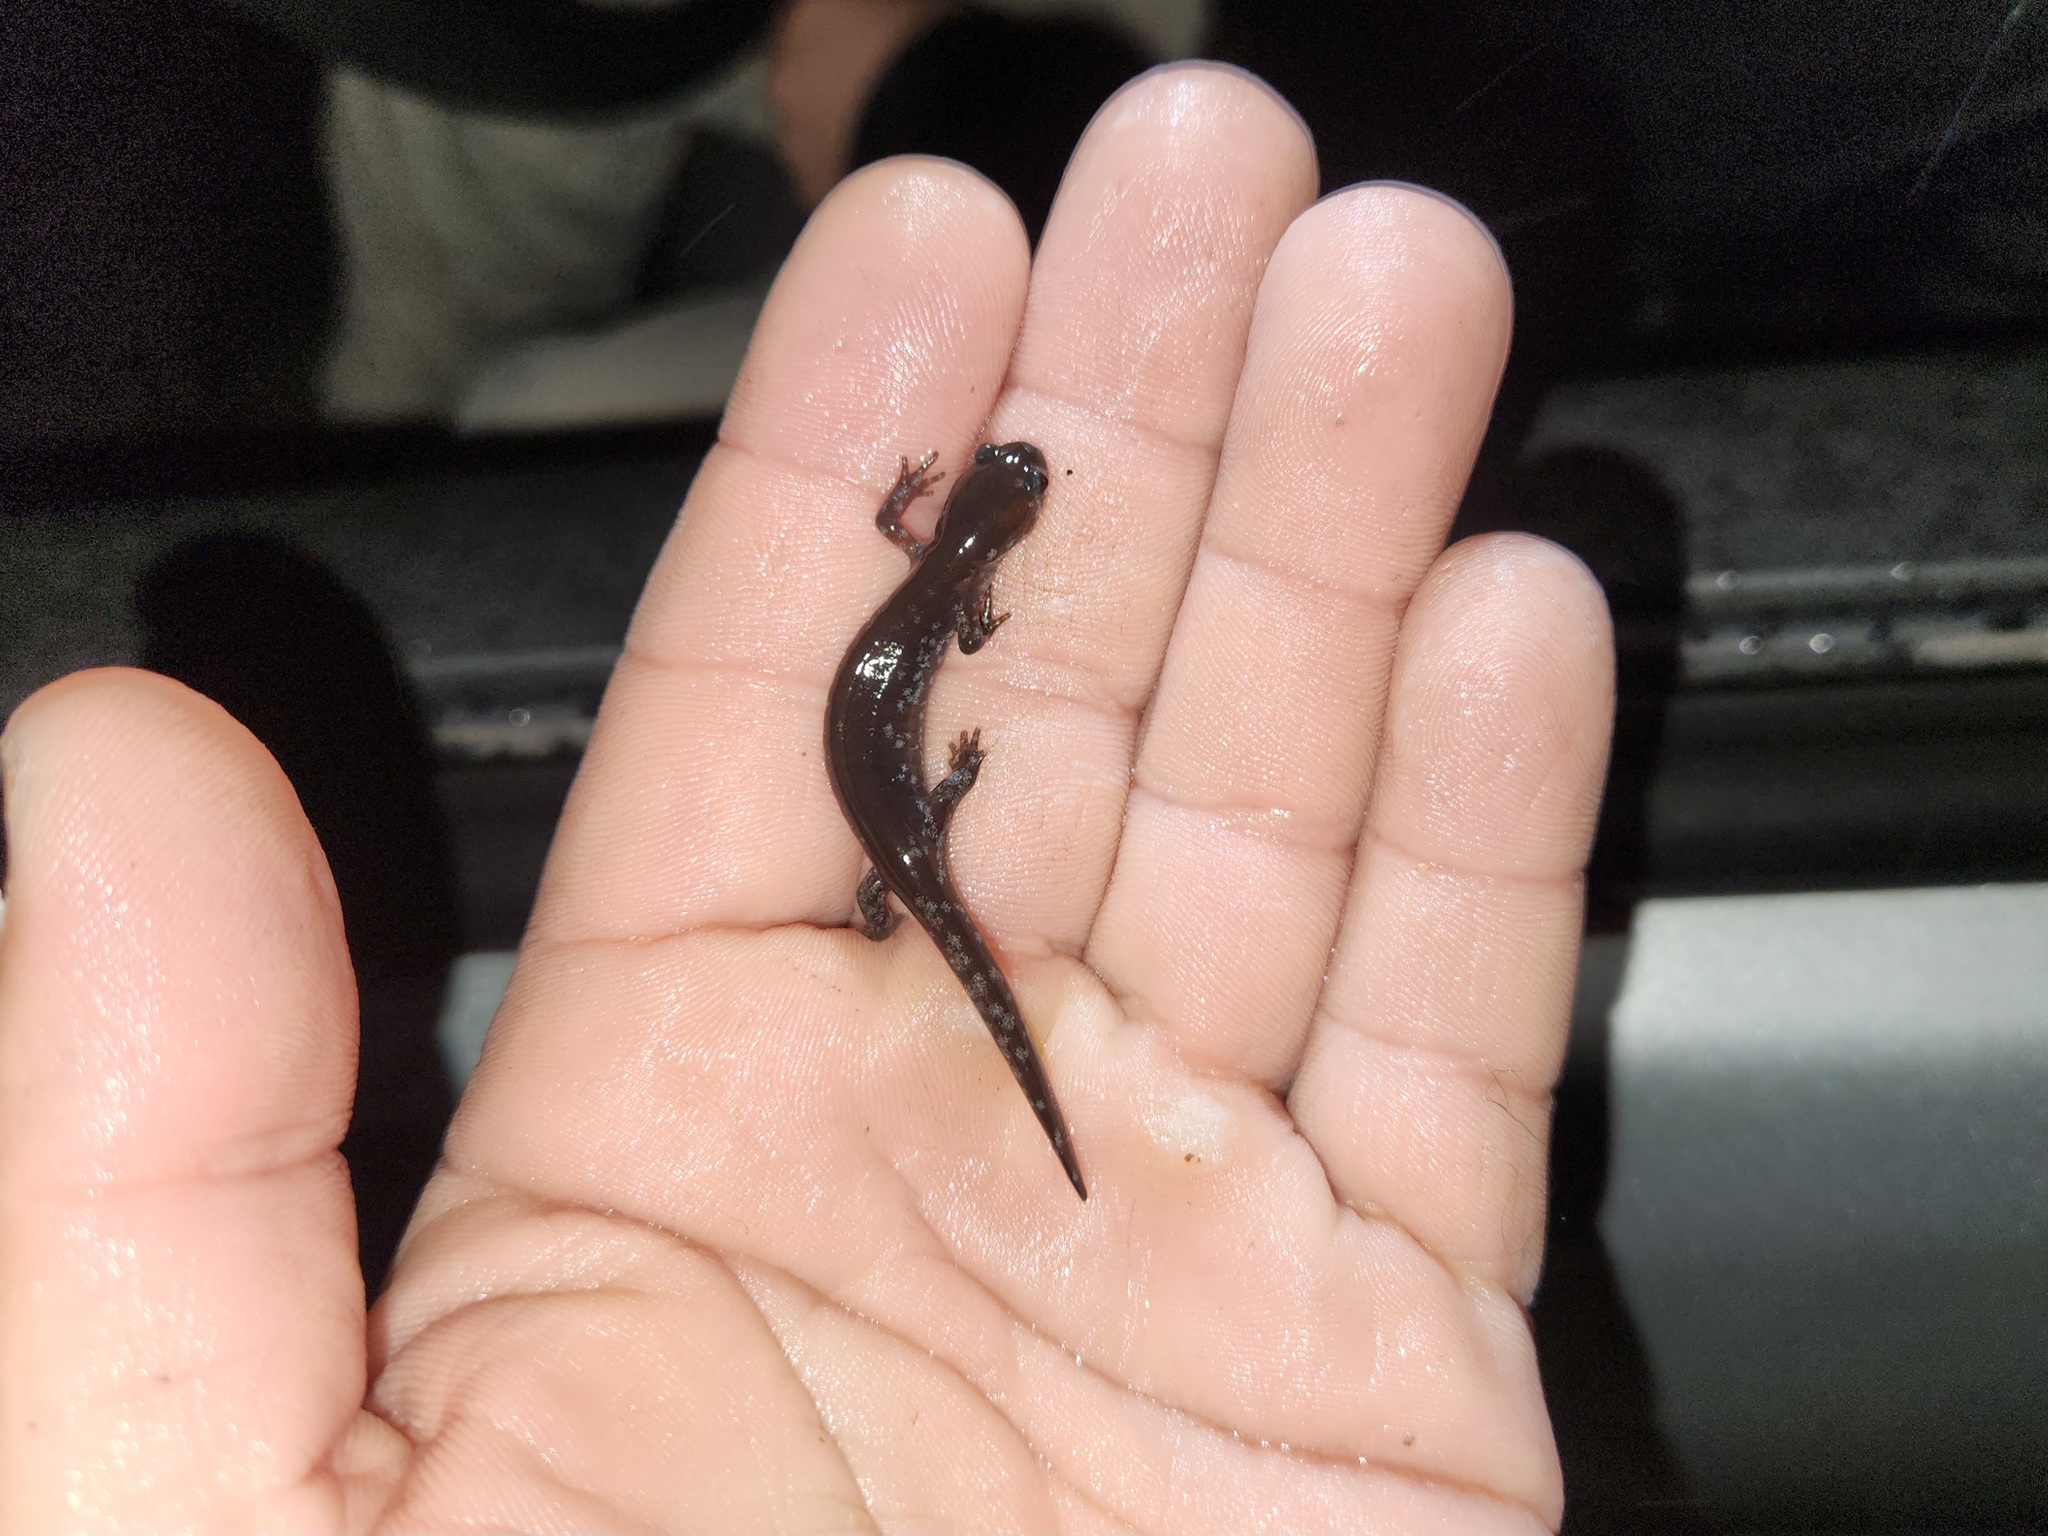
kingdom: Animalia
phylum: Chordata
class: Amphibia
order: Caudata
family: Ambystomatidae
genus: Ambystoma
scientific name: Ambystoma texanum
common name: Small-mouth salamander
